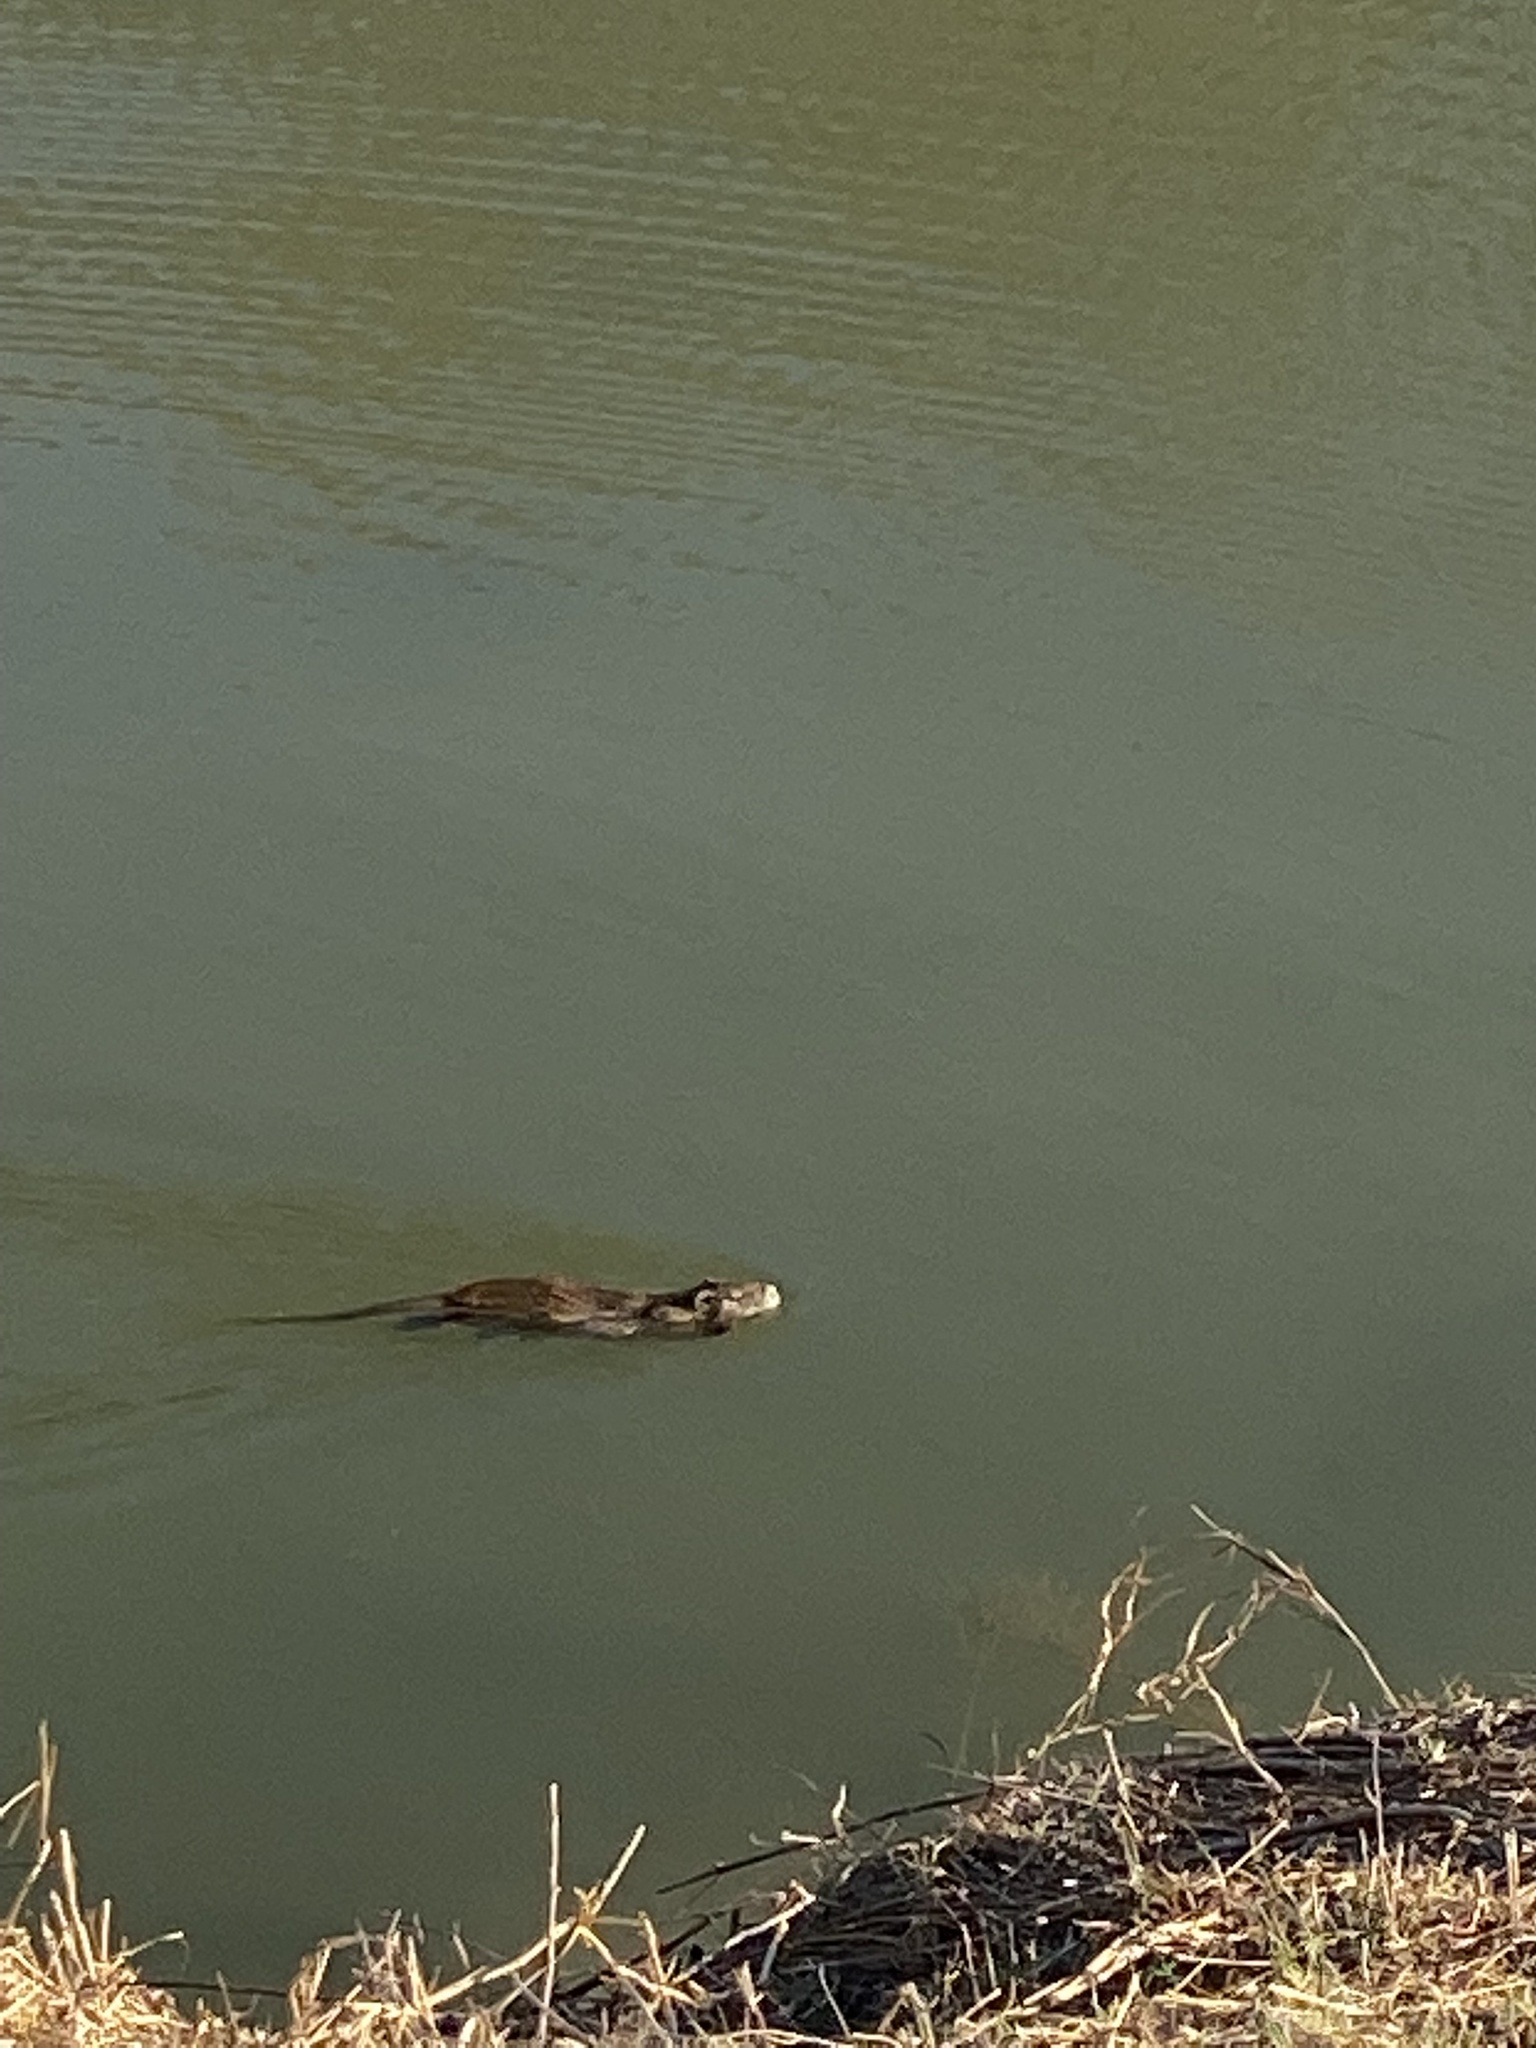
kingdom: Animalia
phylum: Chordata
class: Mammalia
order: Rodentia
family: Myocastoridae
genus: Myocastor
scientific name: Myocastor coypus
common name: Coypu
